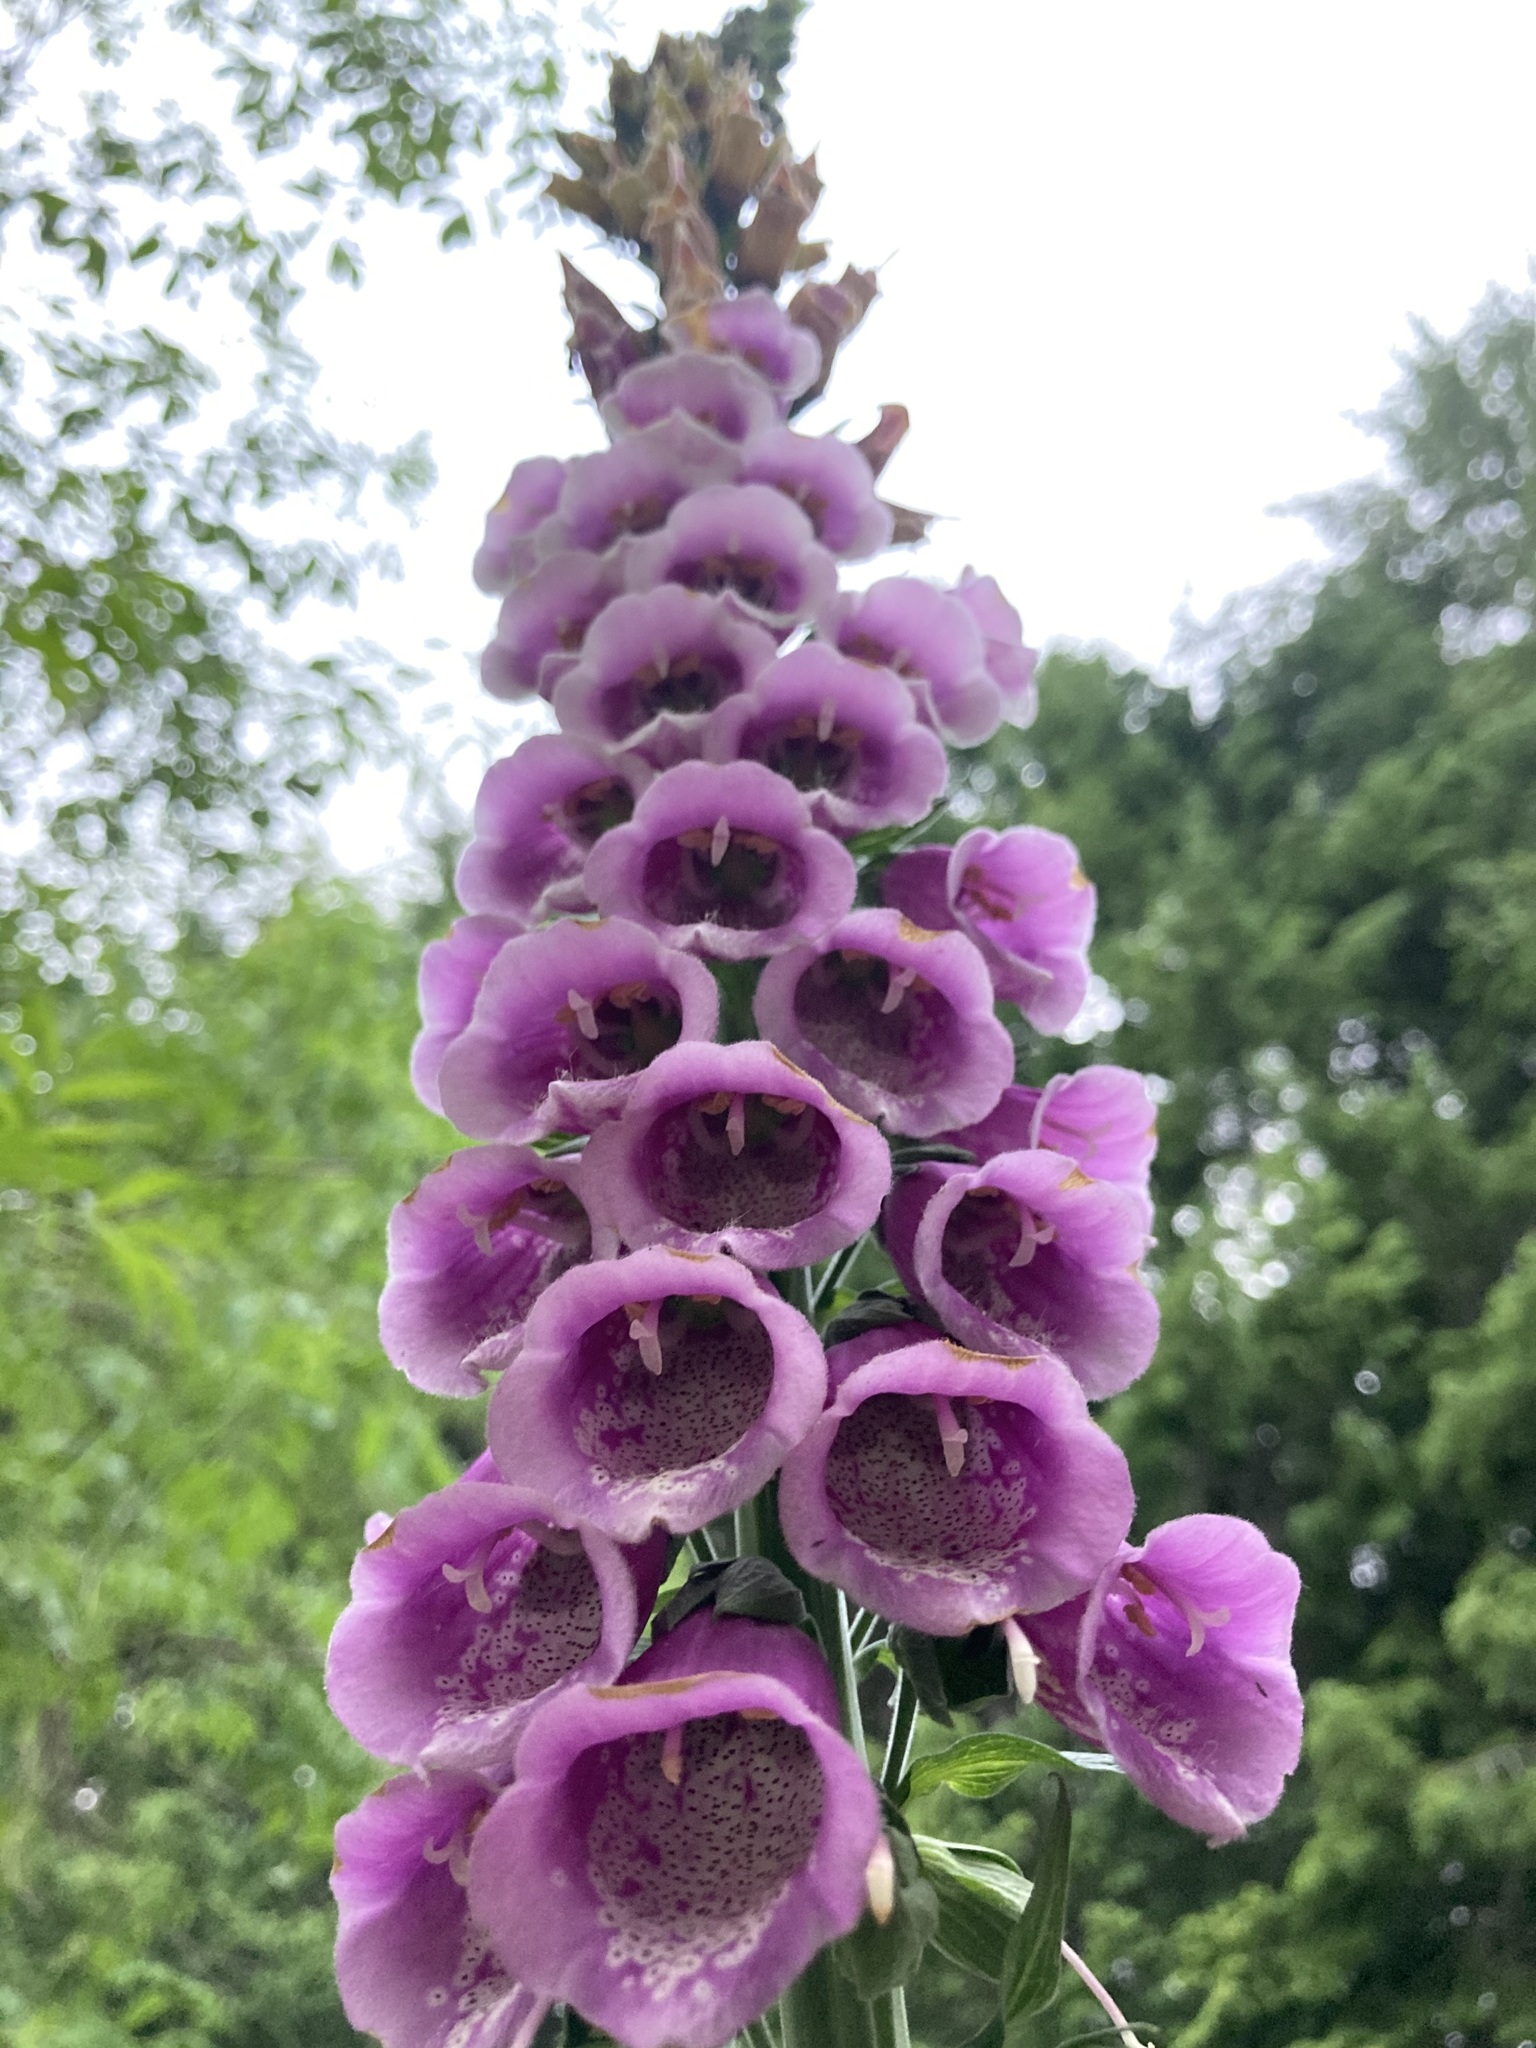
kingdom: Plantae
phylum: Tracheophyta
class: Magnoliopsida
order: Lamiales
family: Plantaginaceae
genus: Digitalis
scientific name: Digitalis purpurea
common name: Foxglove
